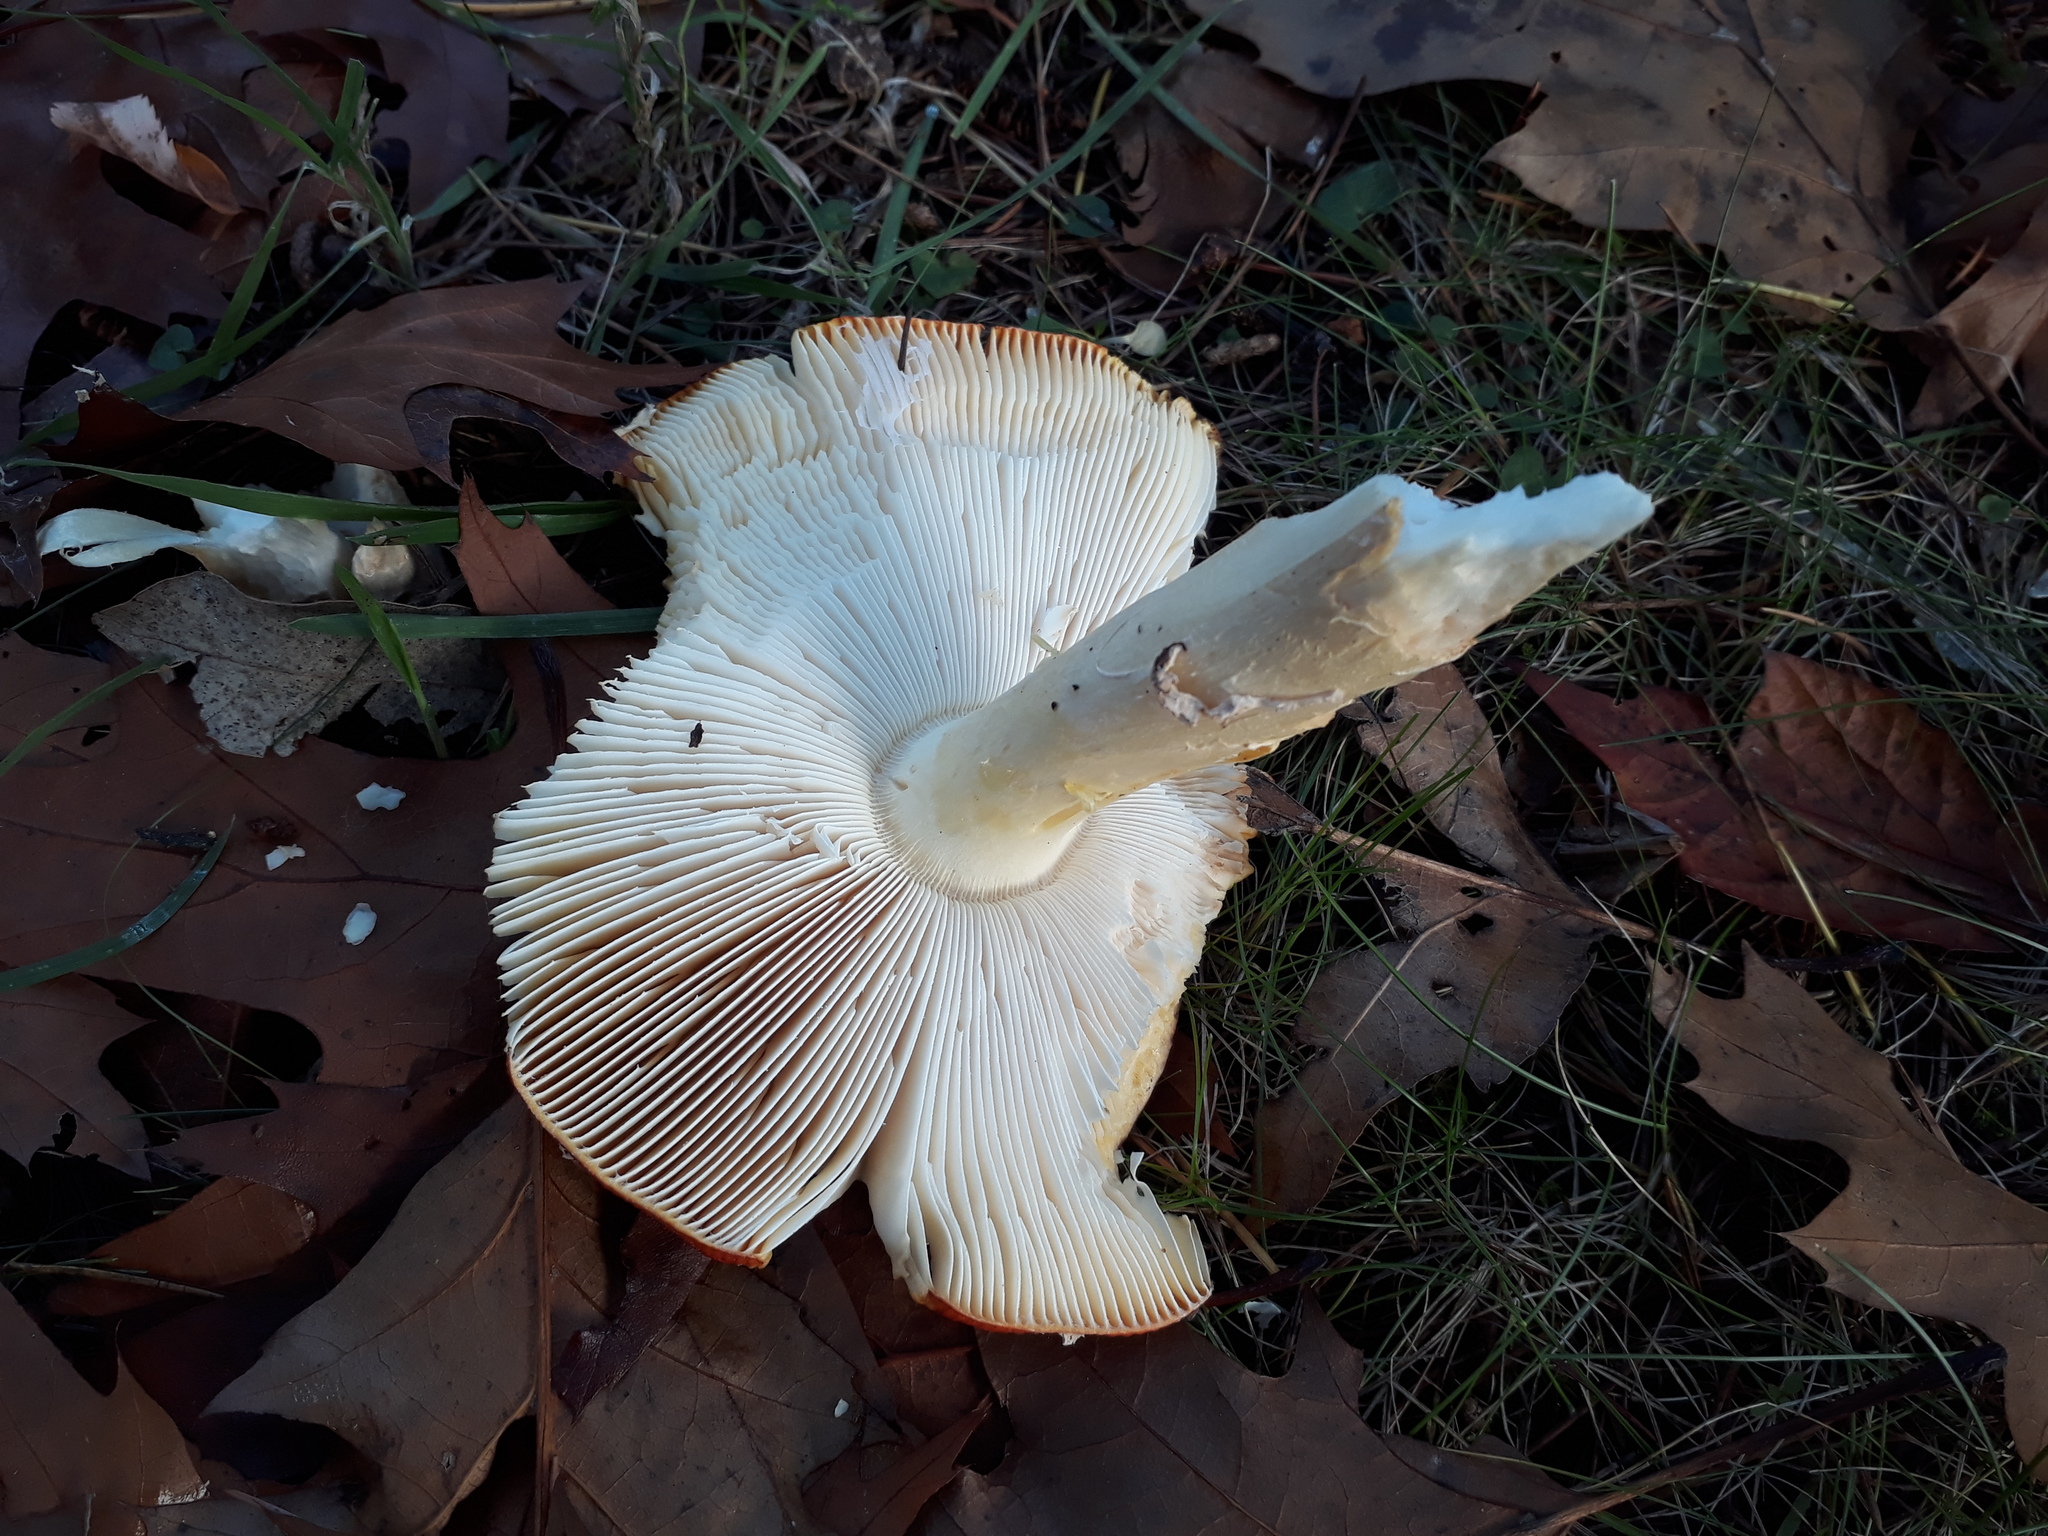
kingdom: Fungi
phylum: Basidiomycota
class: Agaricomycetes
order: Agaricales
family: Amanitaceae
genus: Amanita
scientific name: Amanita muscaria
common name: Fly agaric
